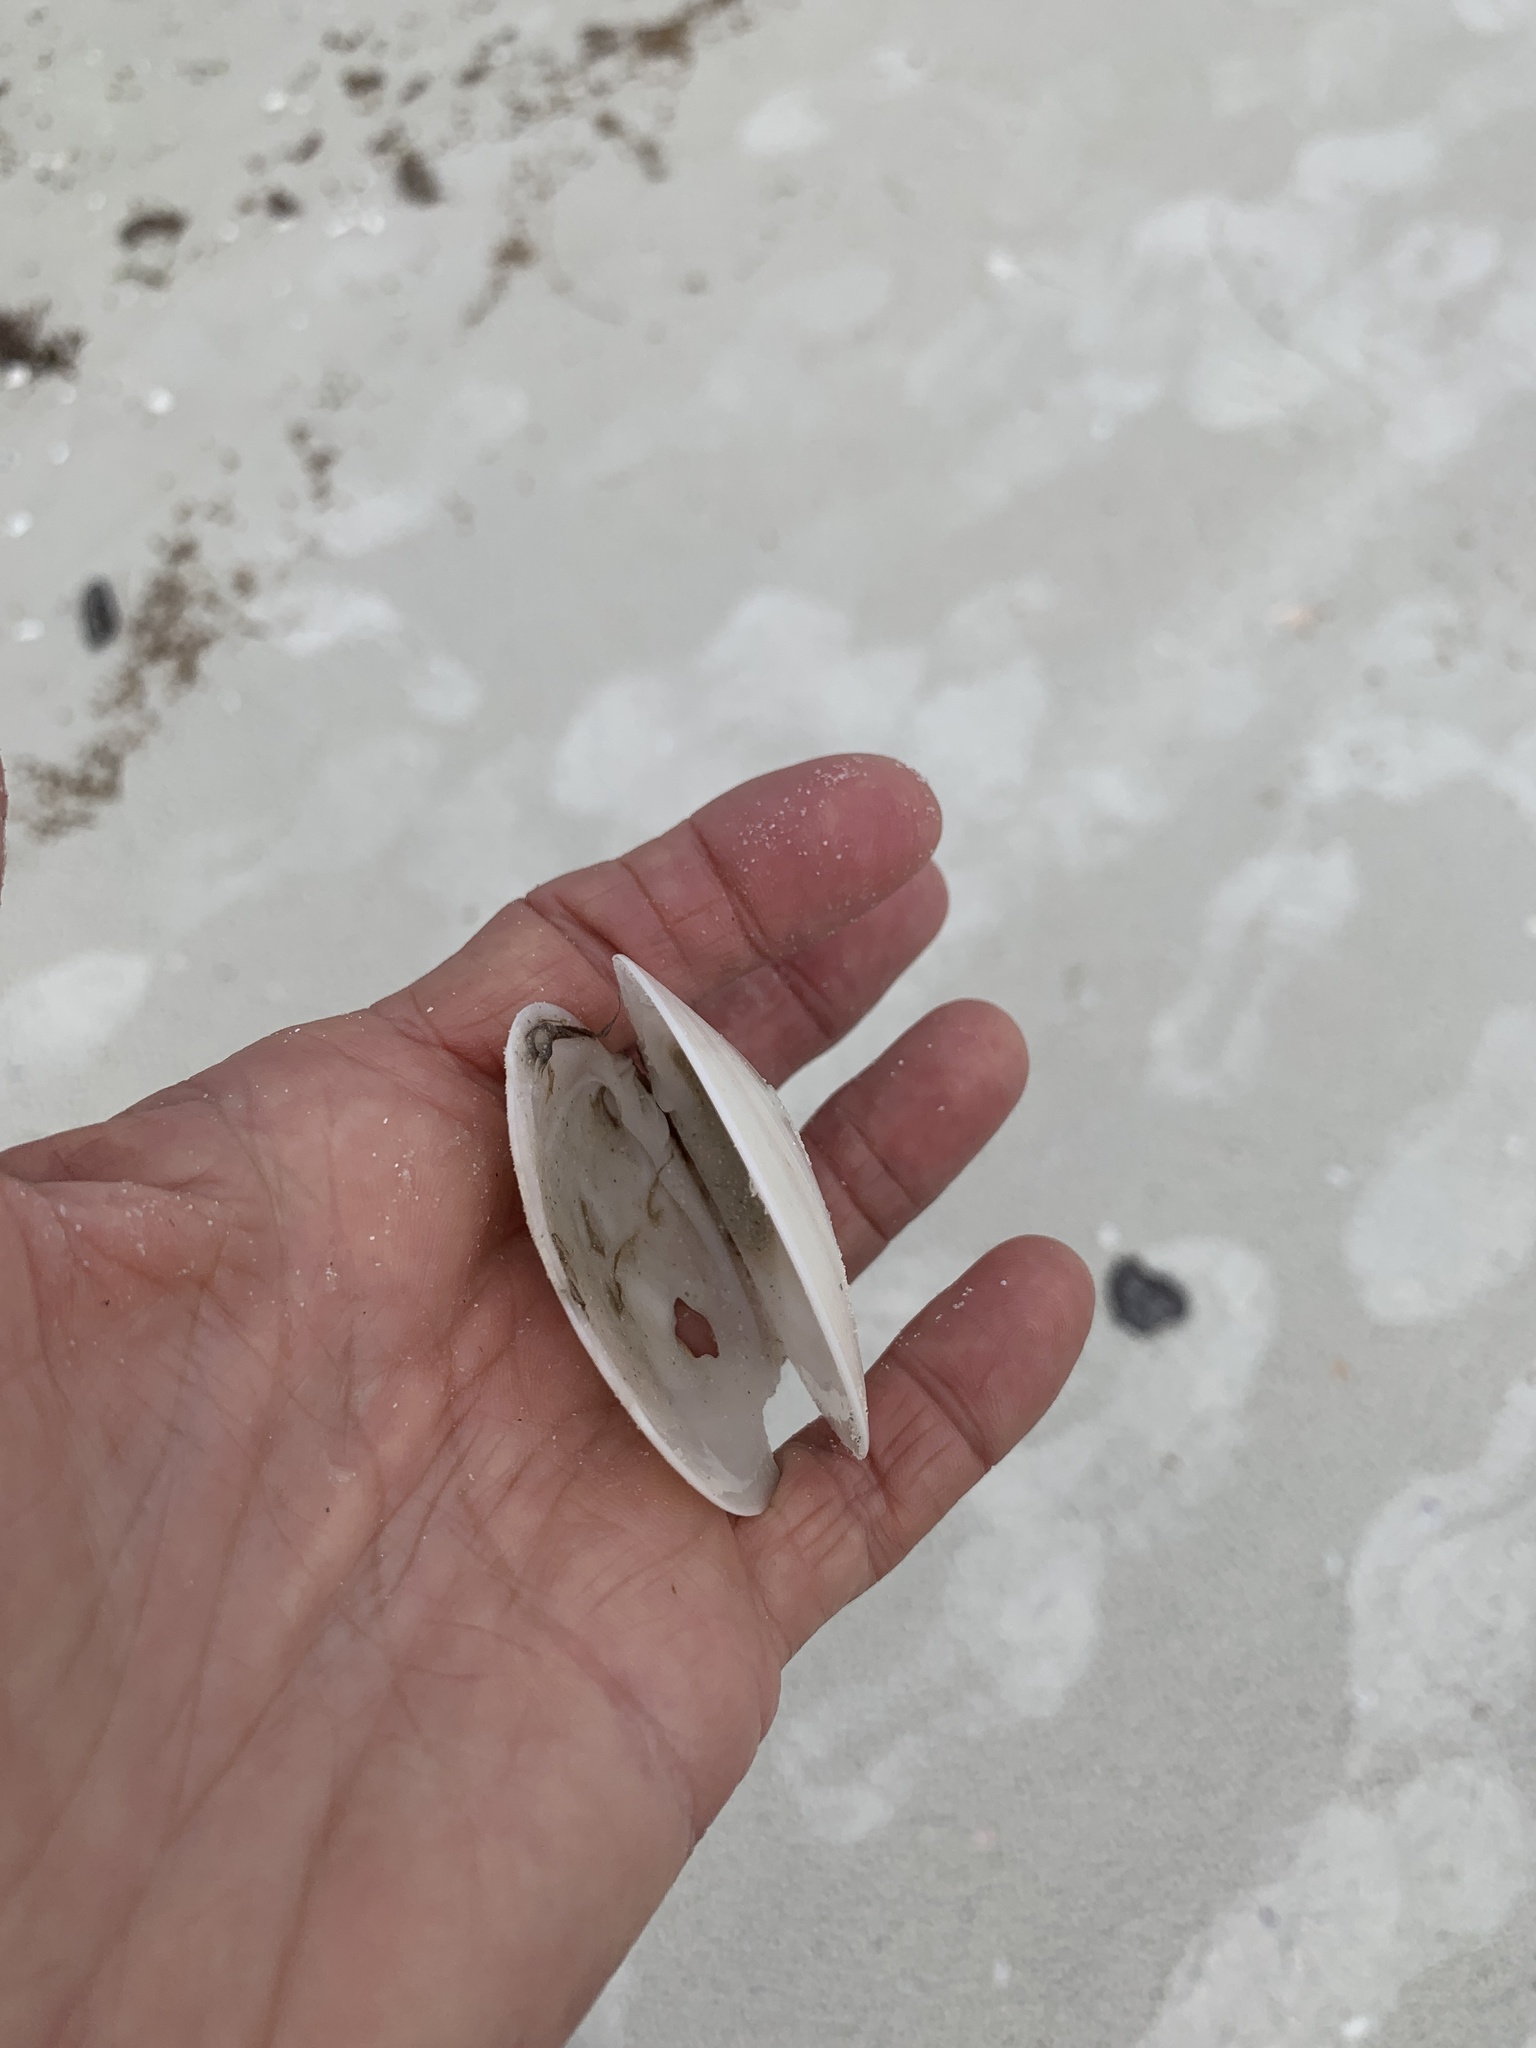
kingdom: Animalia
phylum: Mollusca
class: Bivalvia
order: Venerida
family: Veneridae
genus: Dosinia
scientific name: Dosinia discus
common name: Disk dosinia
